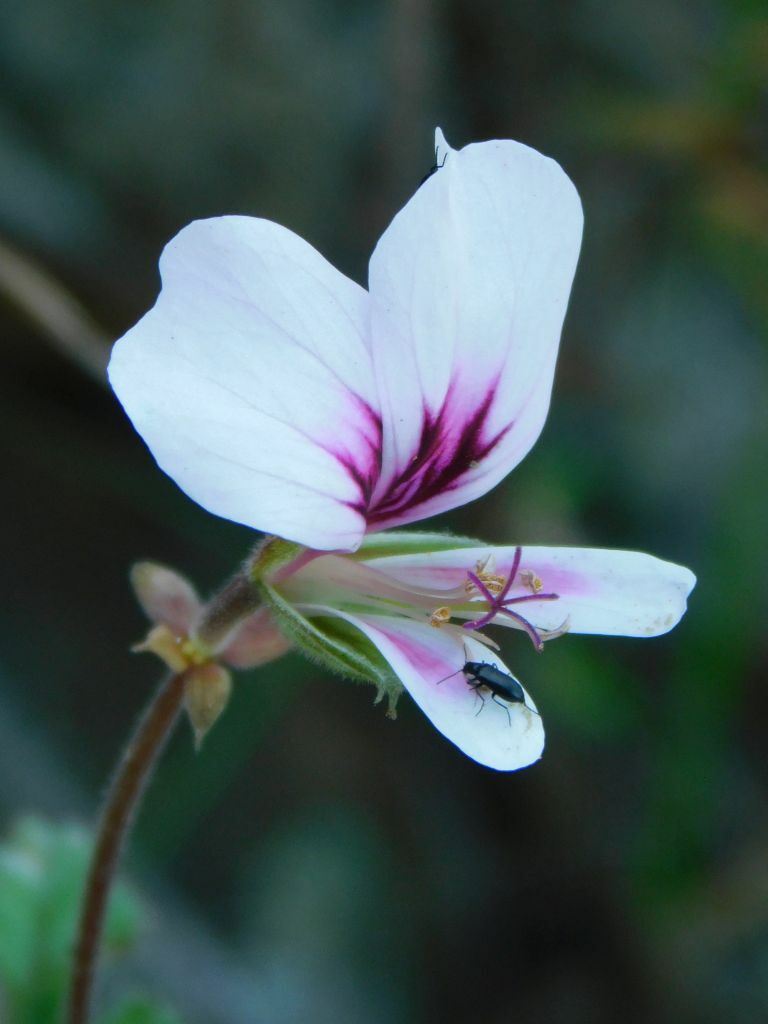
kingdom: Plantae
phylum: Tracheophyta
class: Magnoliopsida
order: Geraniales
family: Geraniaceae
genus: Pelargonium
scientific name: Pelargonium candicans
